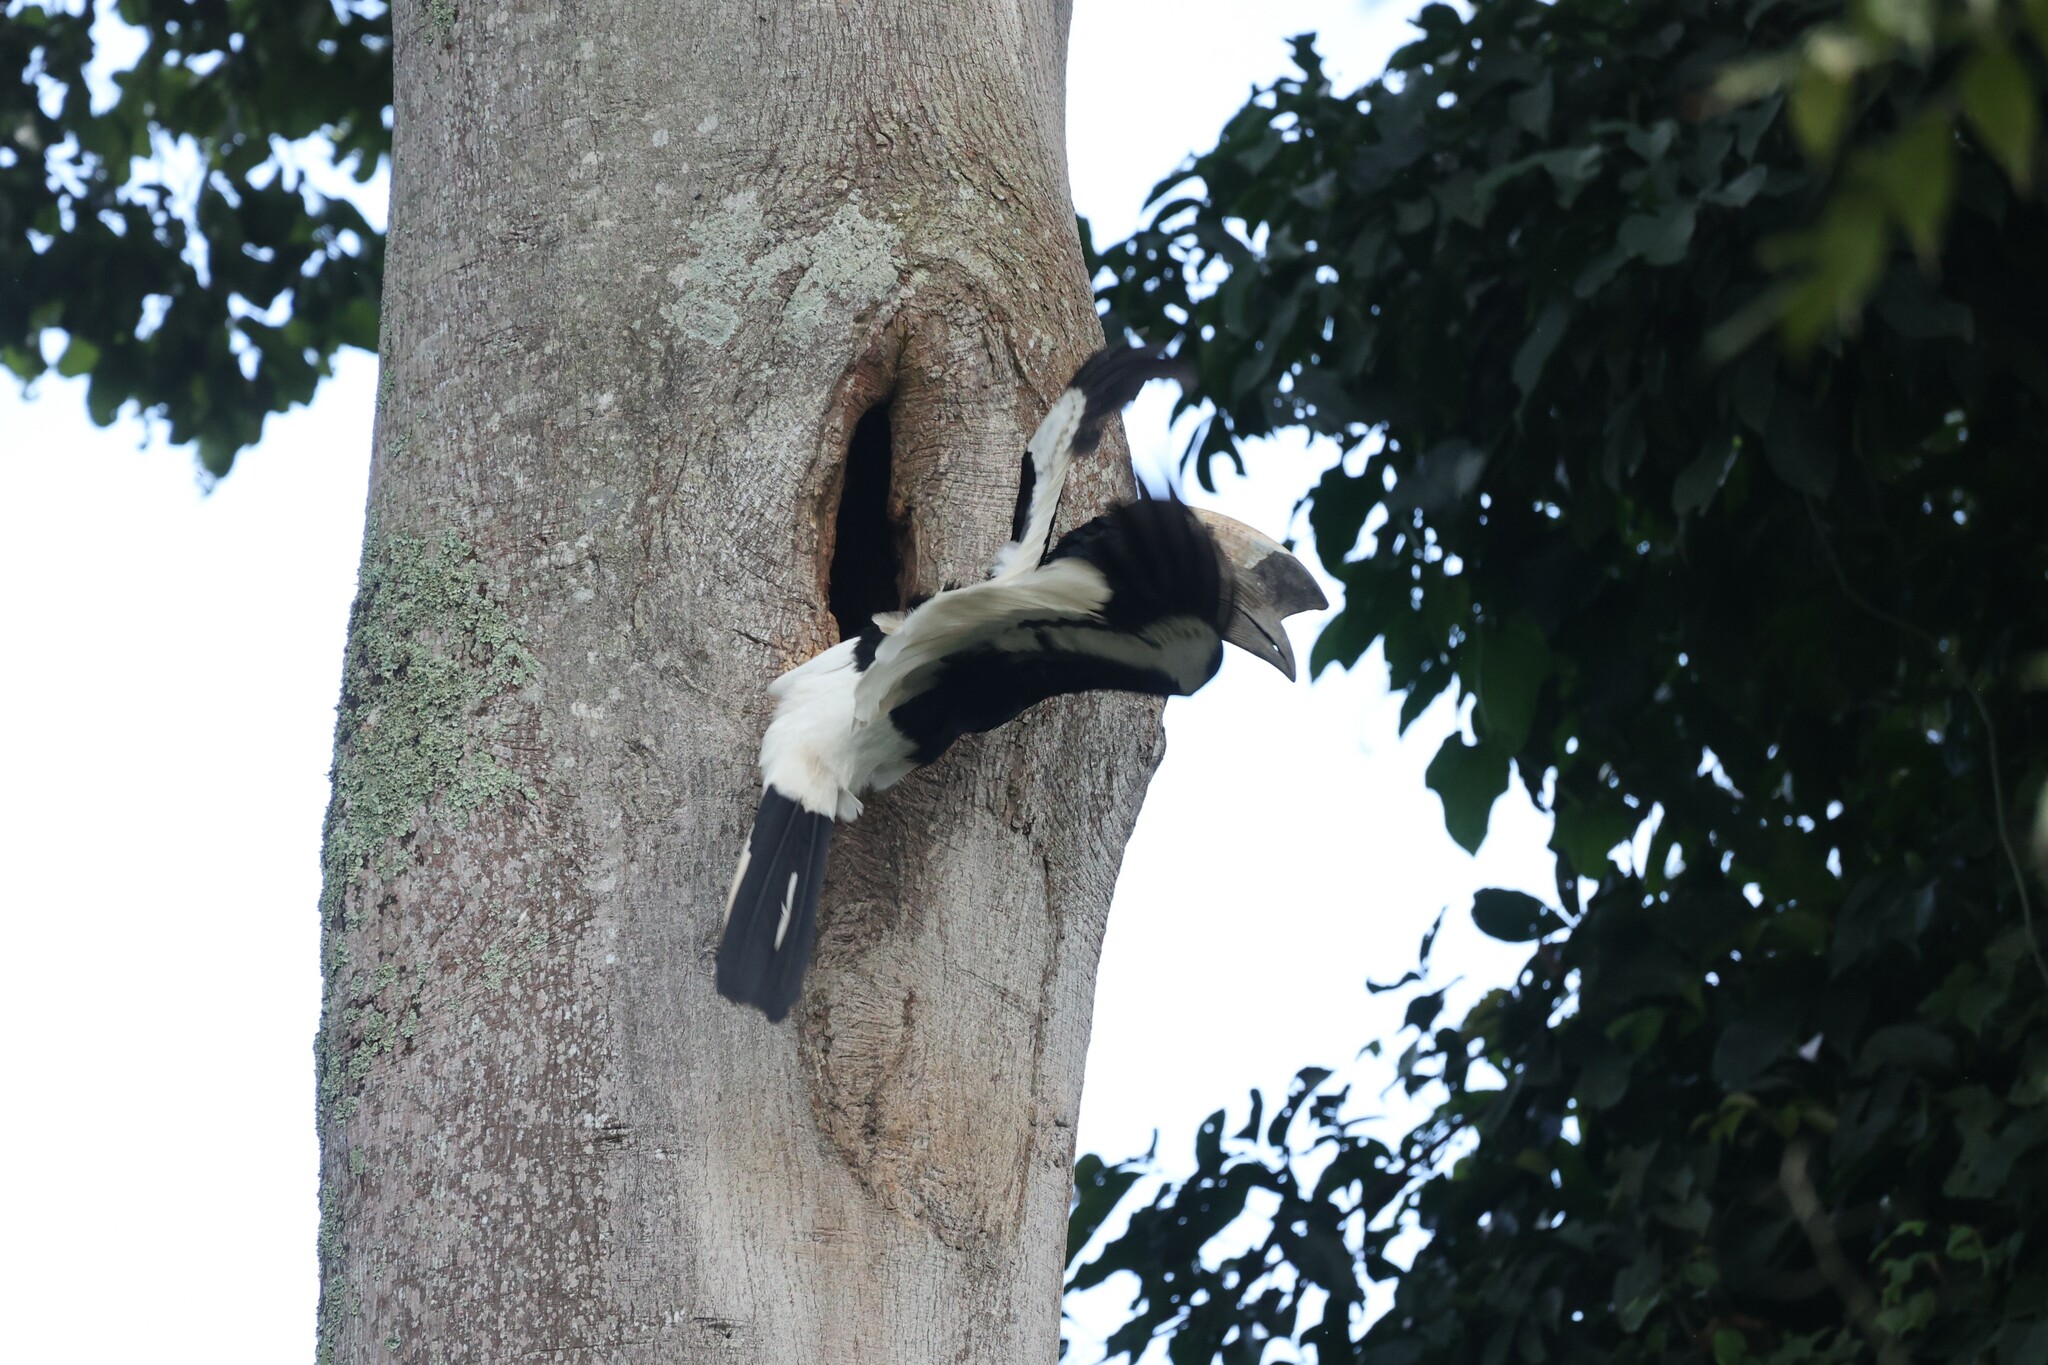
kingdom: Animalia
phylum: Chordata
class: Aves
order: Bucerotiformes
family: Bucerotidae
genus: Bycanistes
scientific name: Bycanistes subcylindricus
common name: Black-and-white-casqued hornbill
